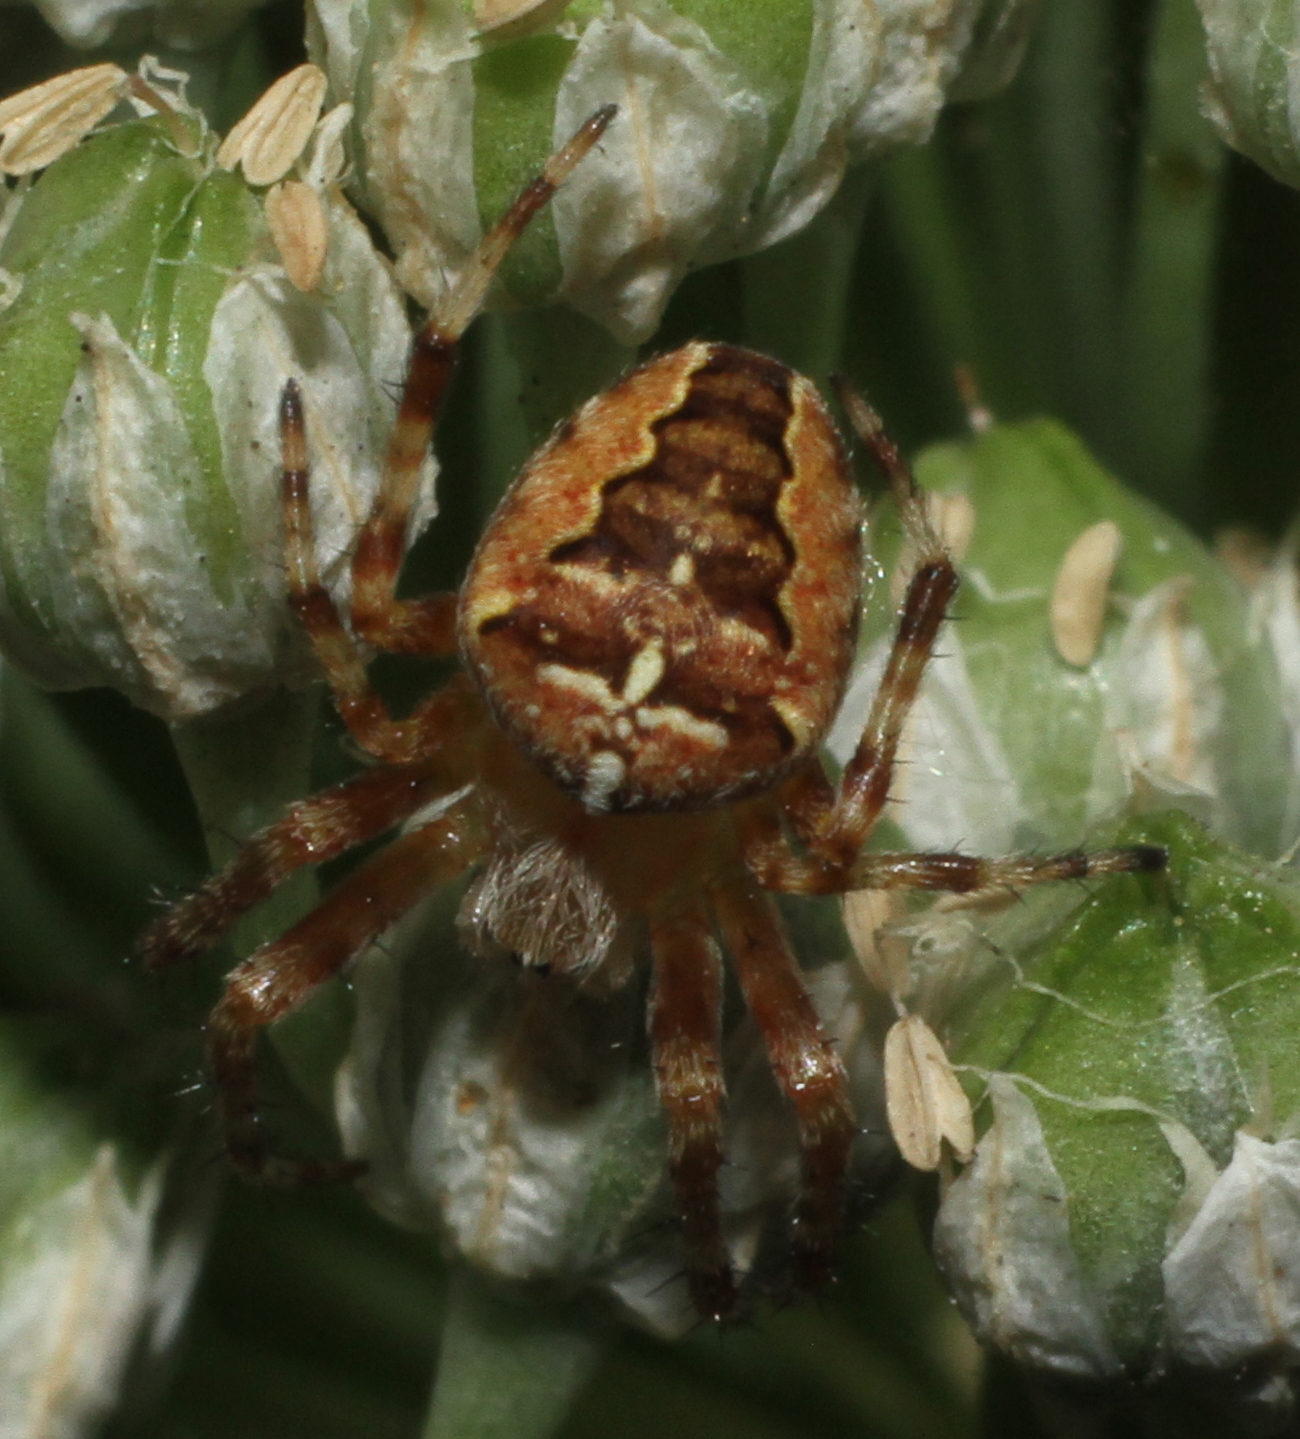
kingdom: Animalia
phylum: Arthropoda
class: Arachnida
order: Araneae
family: Araneidae
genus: Araneus
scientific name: Araneus diadematus
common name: Cross orbweaver
